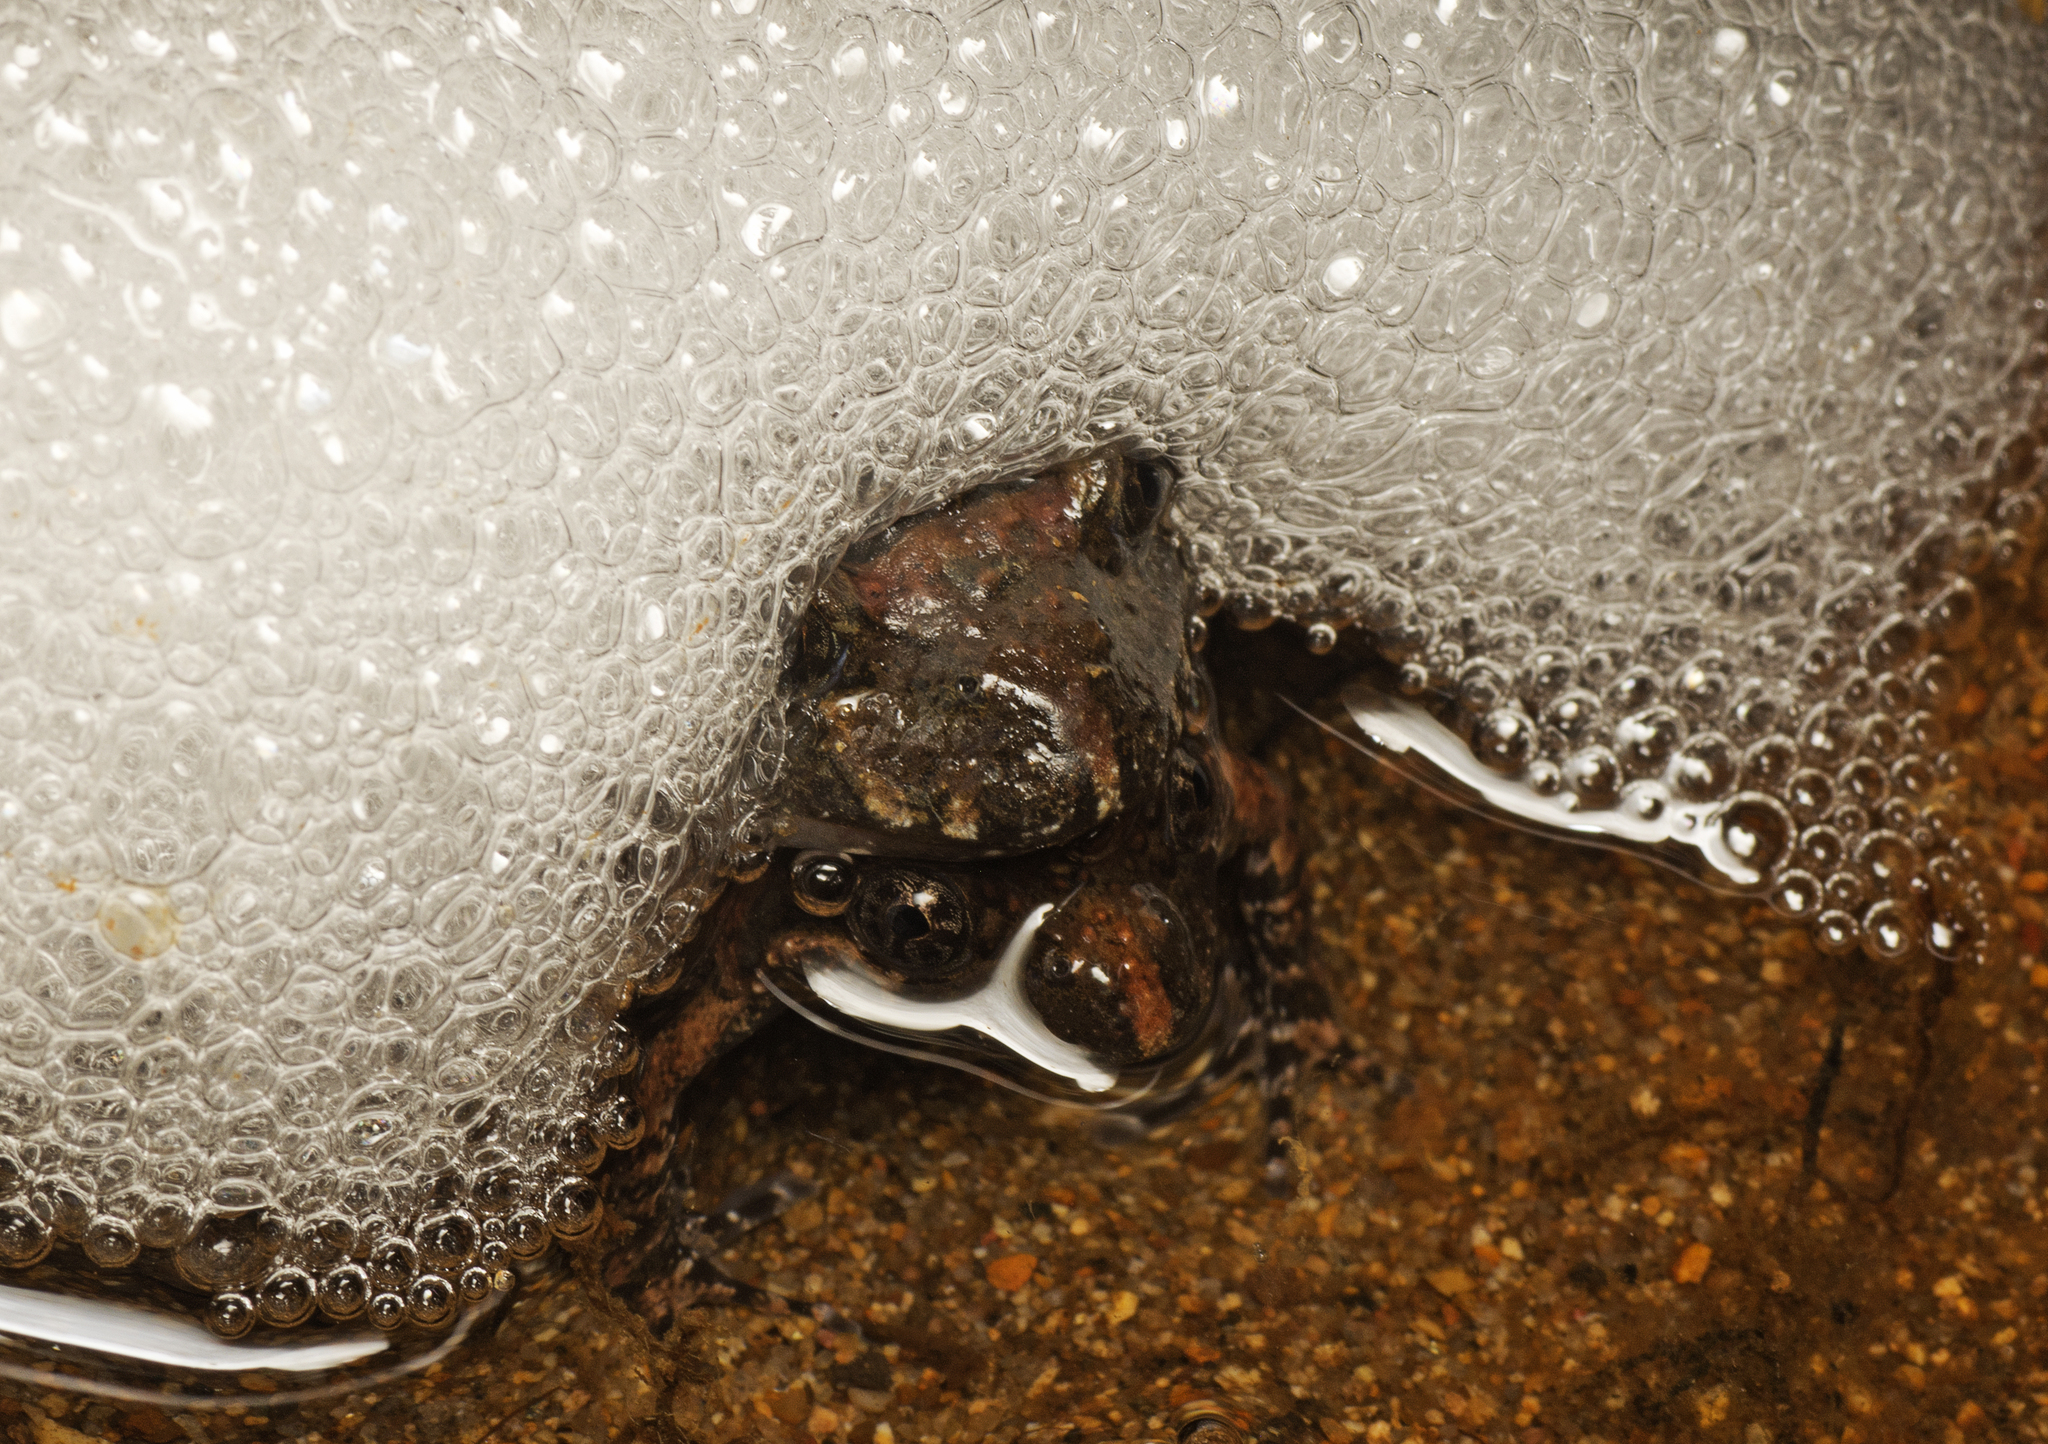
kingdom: Animalia
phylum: Chordata
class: Amphibia
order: Anura
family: Limnodynastidae
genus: Adelotus
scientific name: Adelotus brevis
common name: Tusked frog
